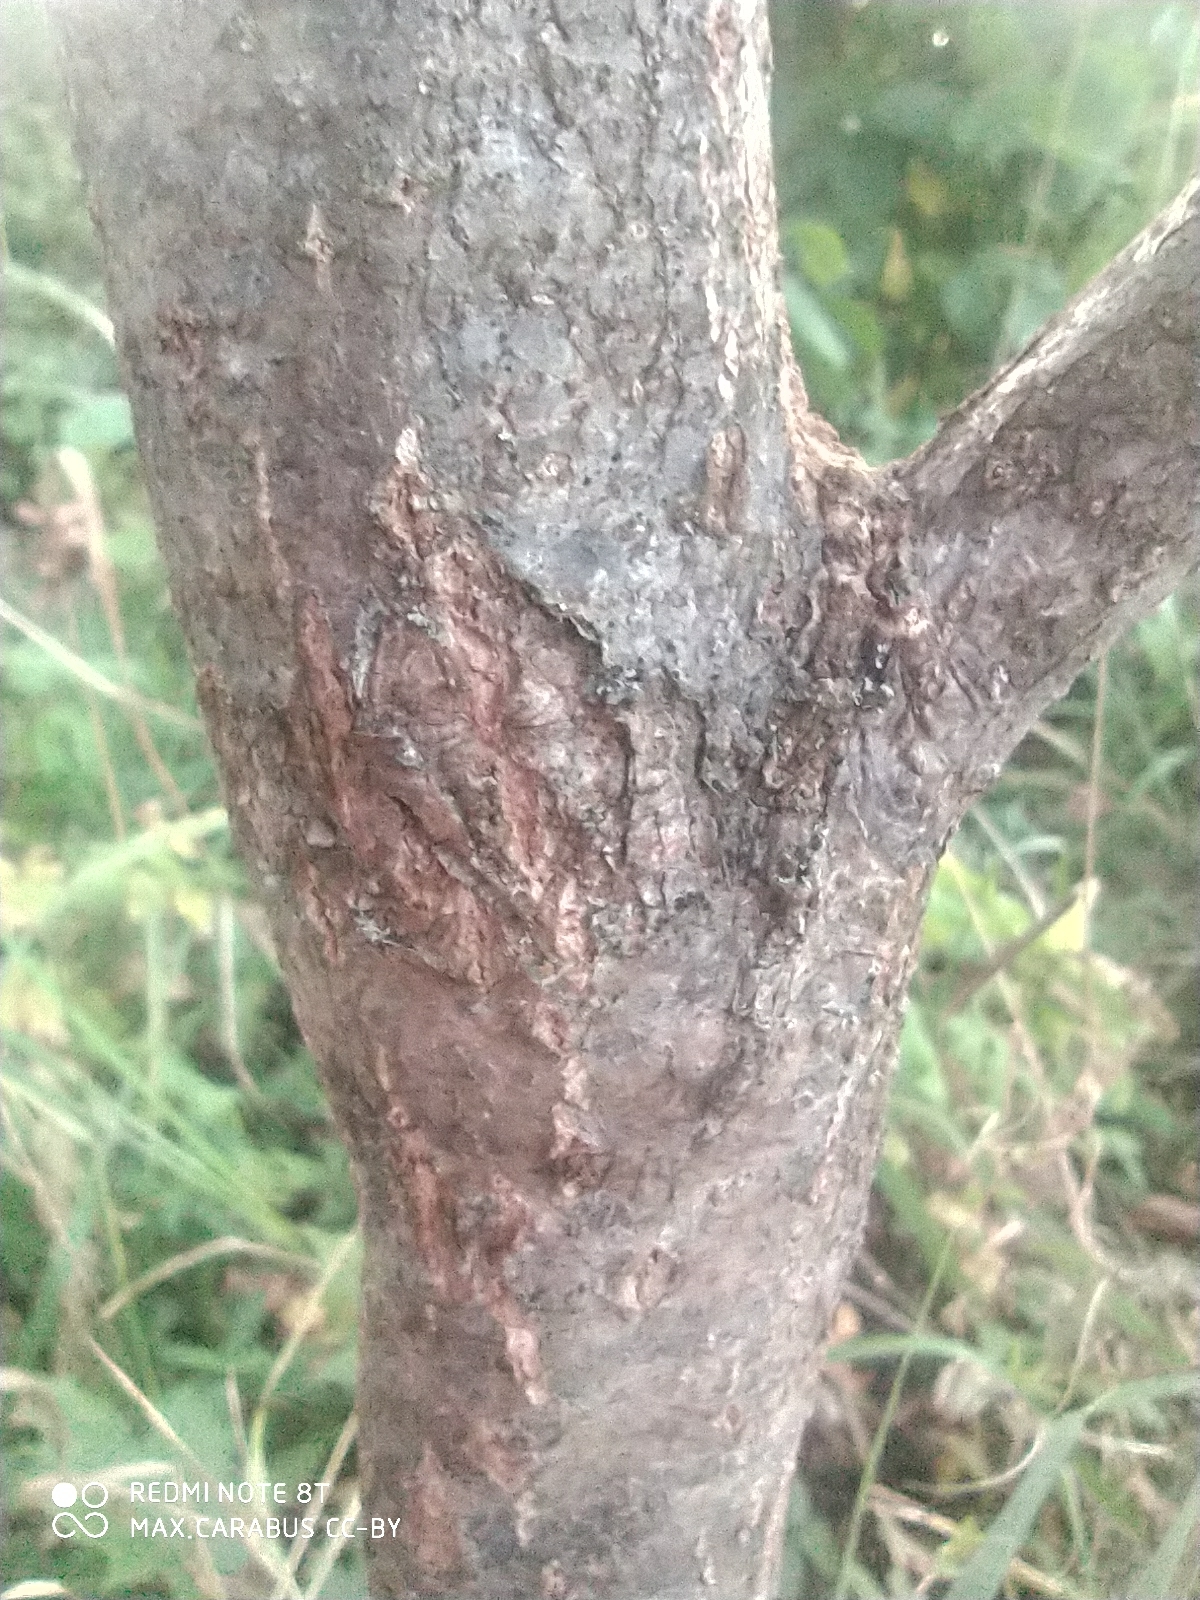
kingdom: Plantae
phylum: Tracheophyta
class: Magnoliopsida
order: Fagales
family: Fagaceae
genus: Quercus
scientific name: Quercus robur
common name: Pedunculate oak
